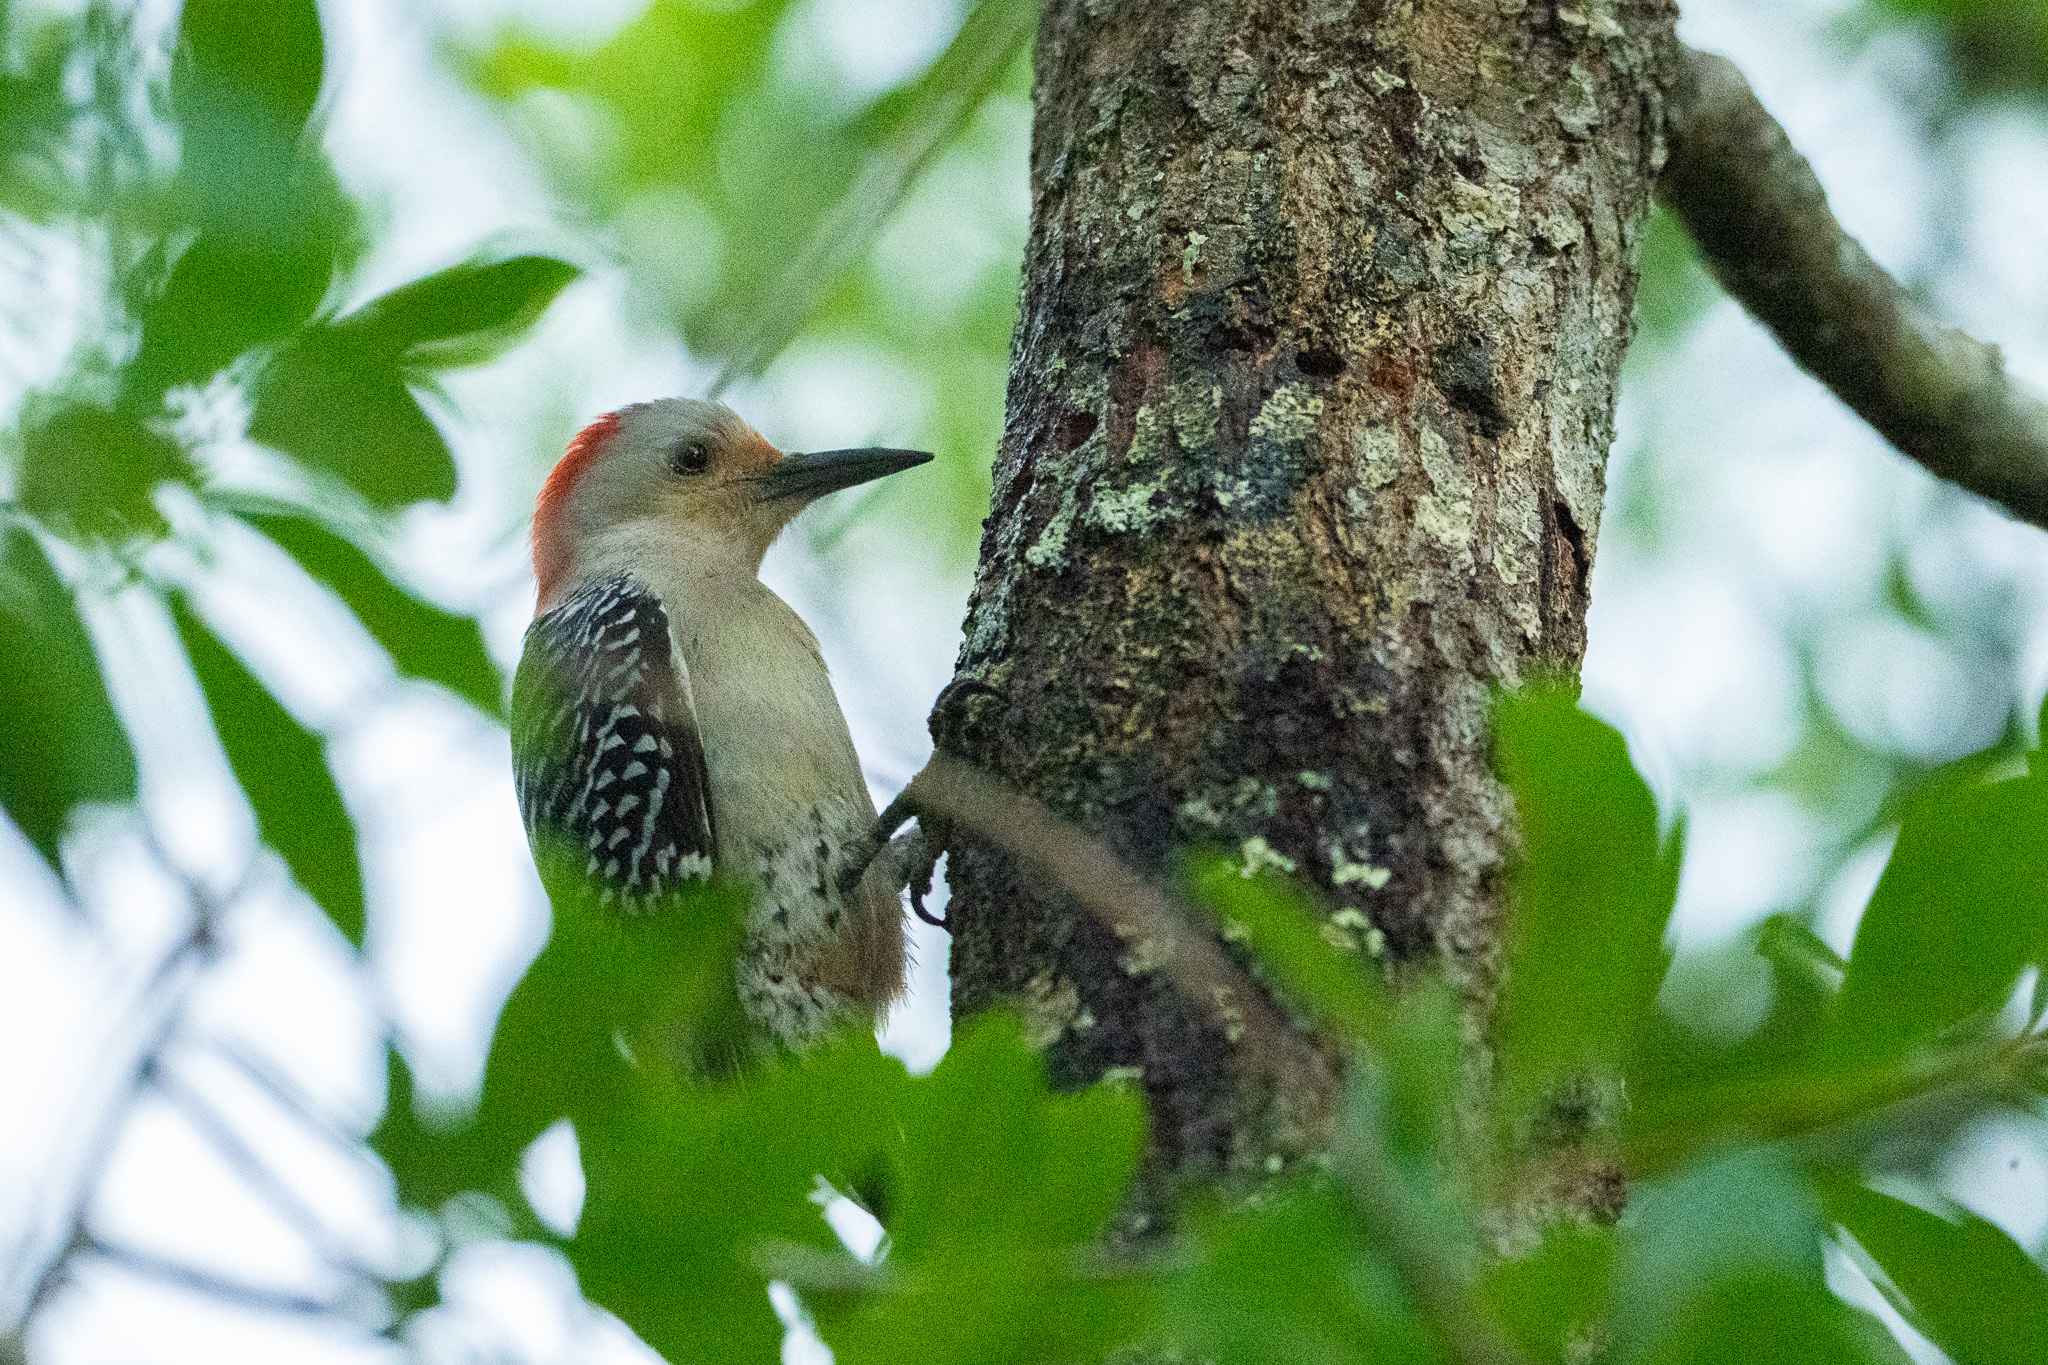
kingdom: Animalia
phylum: Chordata
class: Aves
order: Piciformes
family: Picidae
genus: Melanerpes
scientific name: Melanerpes carolinus
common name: Red-bellied woodpecker
